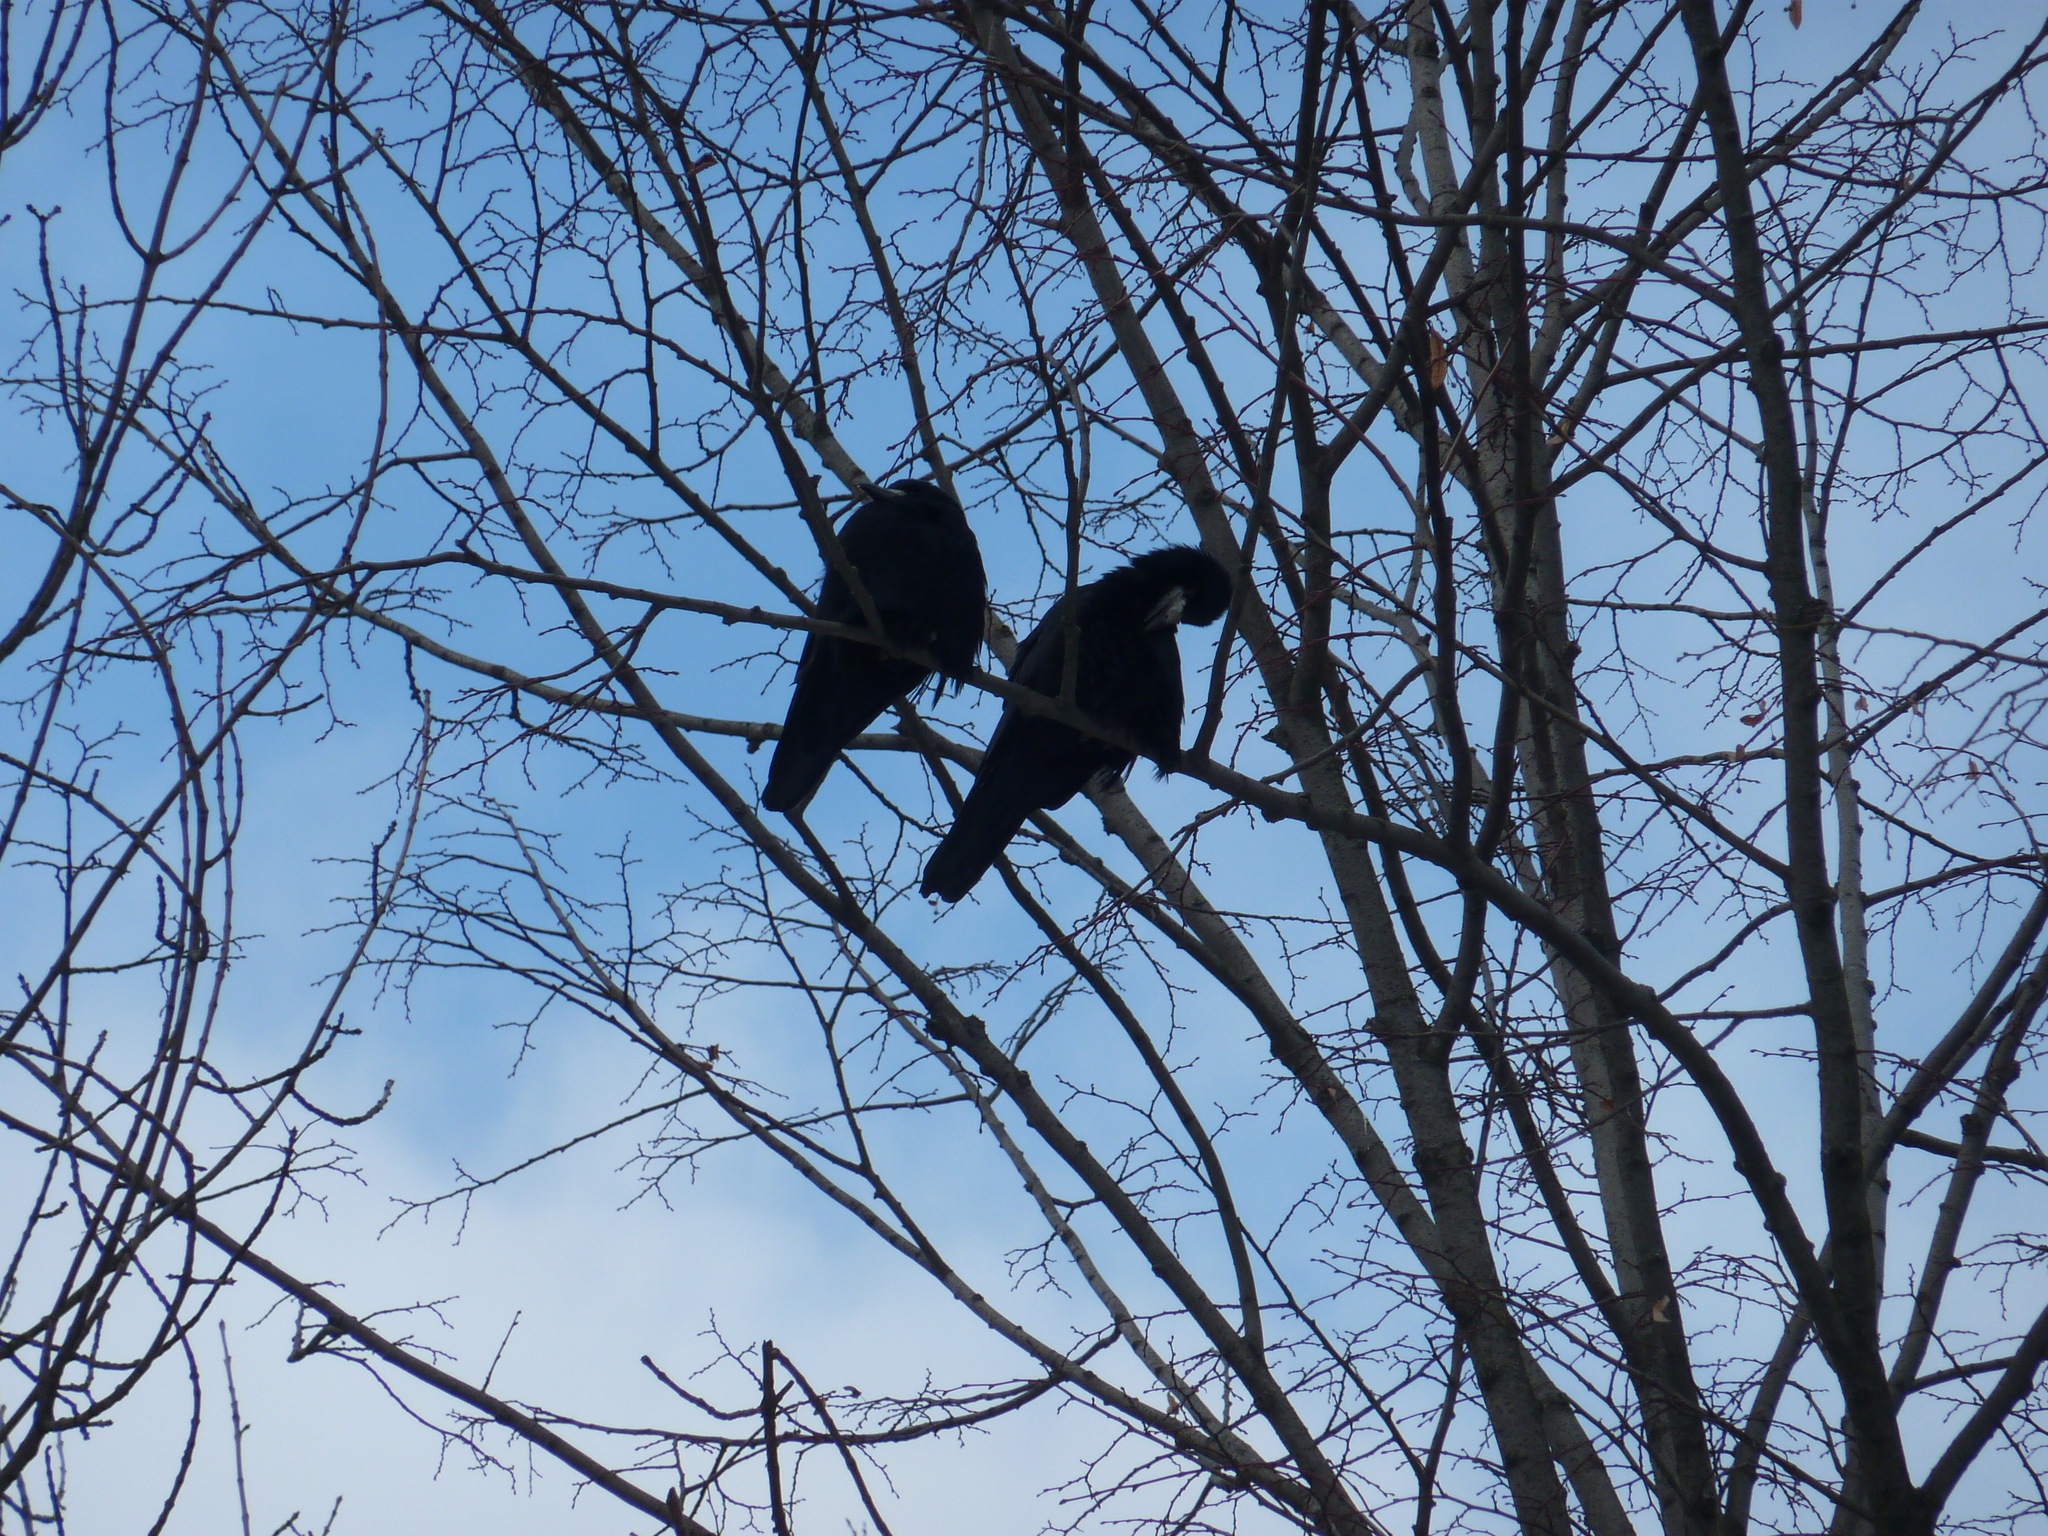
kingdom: Animalia
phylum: Chordata
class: Aves
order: Passeriformes
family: Corvidae
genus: Corvus
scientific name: Corvus frugilegus
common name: Rook
